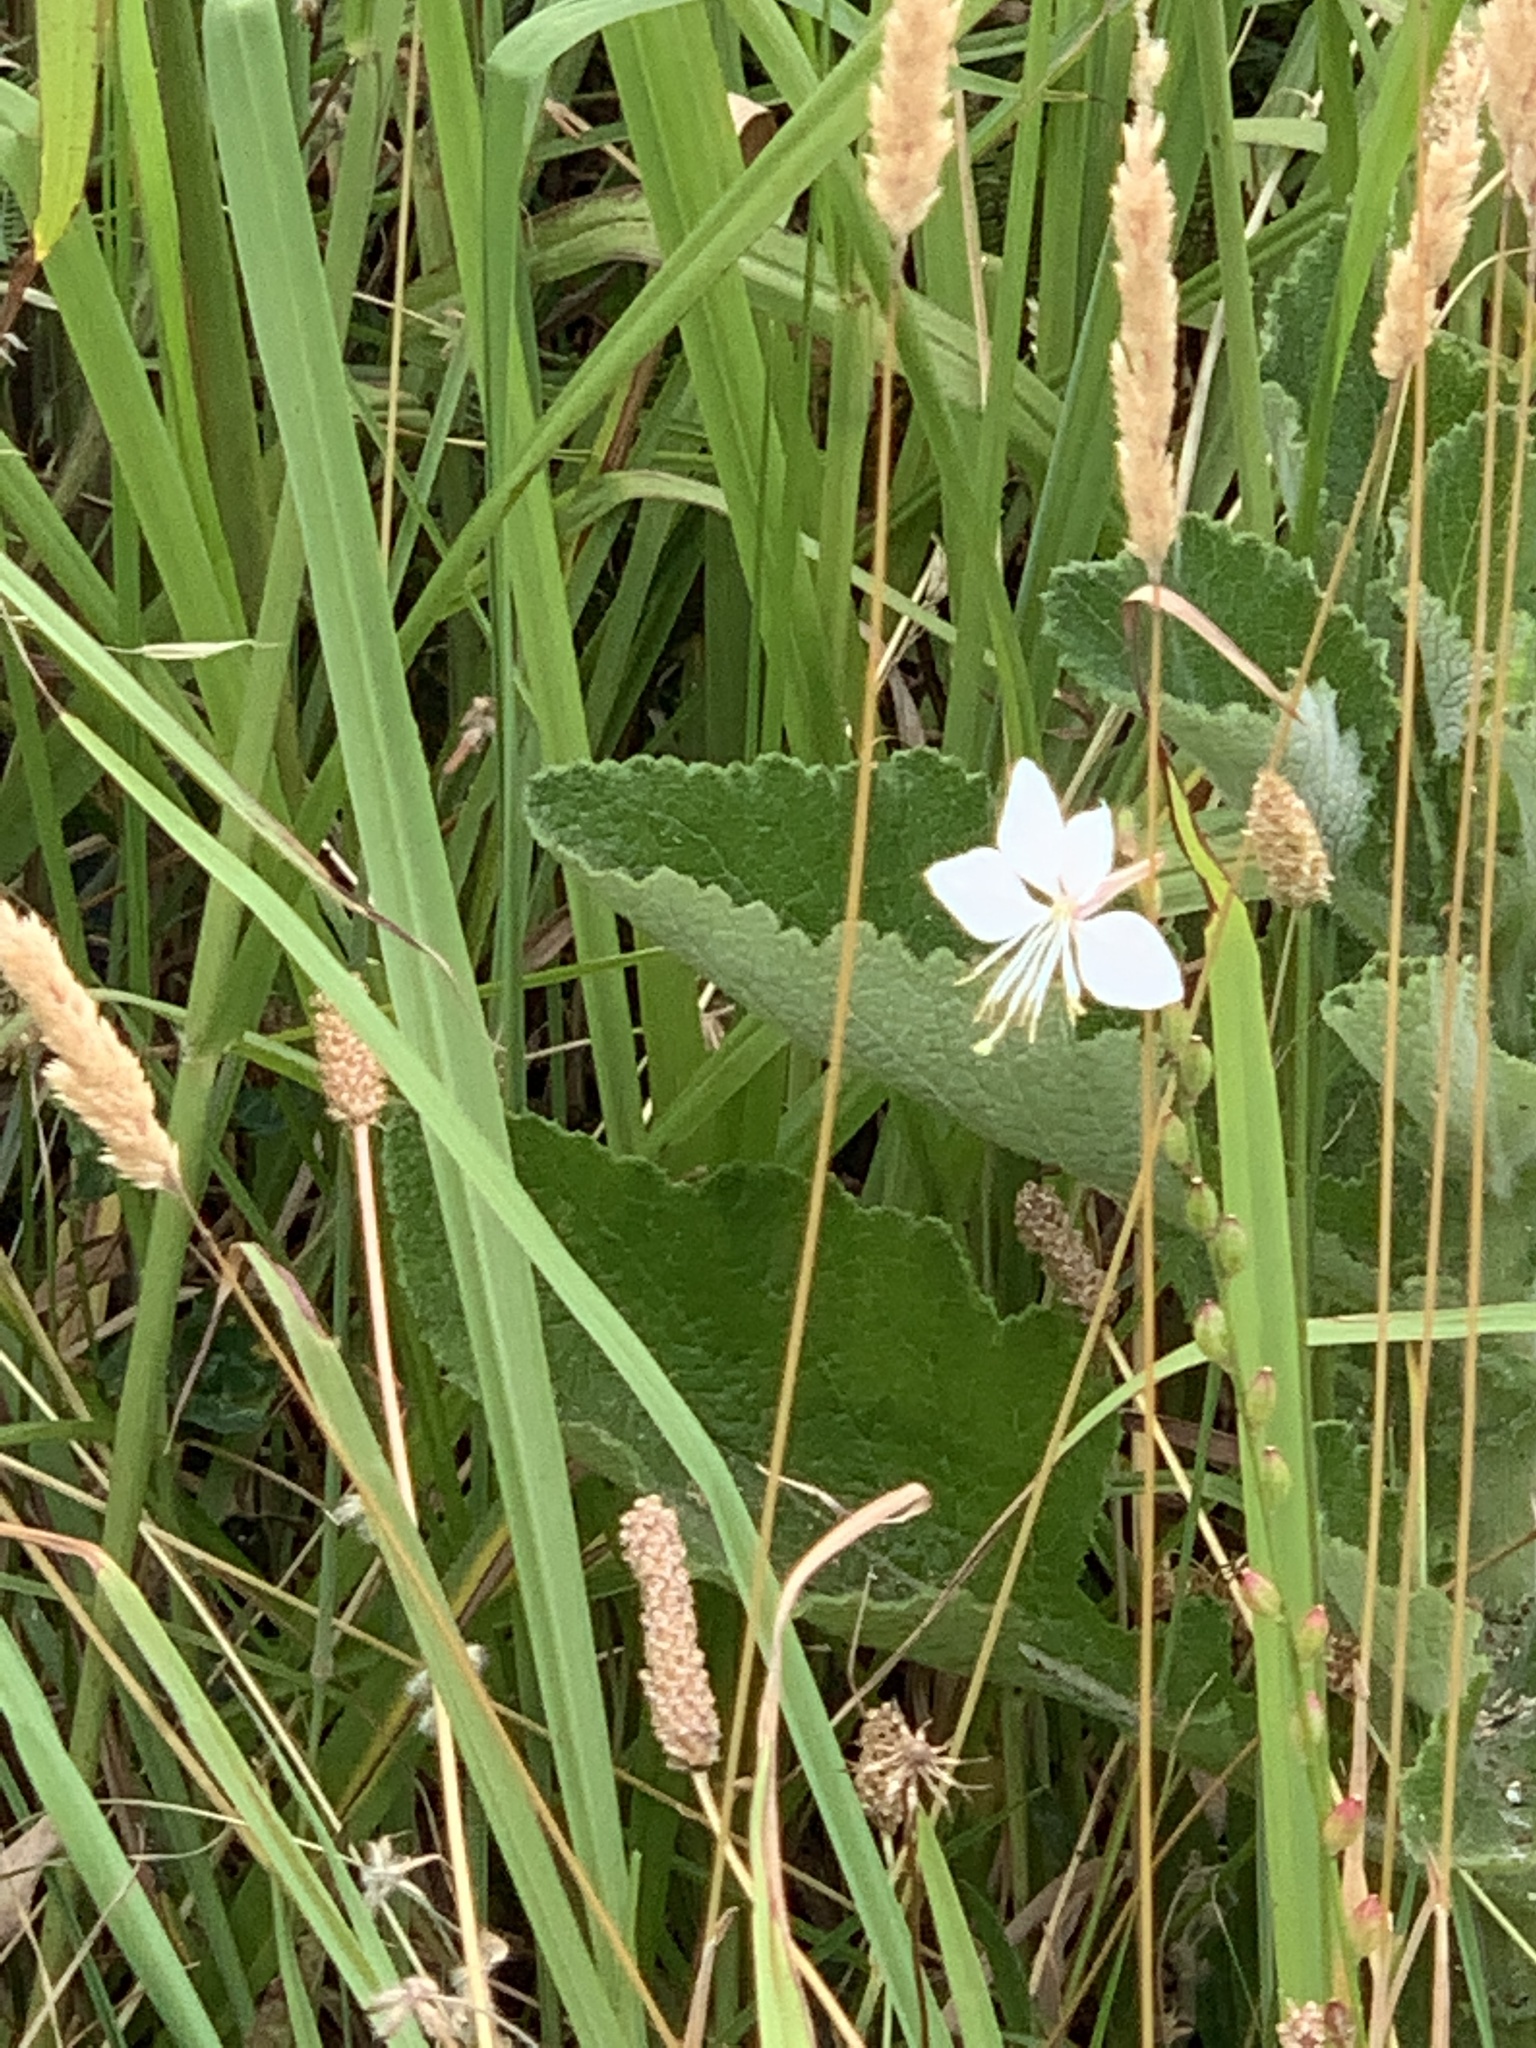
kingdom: Plantae
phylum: Tracheophyta
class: Magnoliopsida
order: Myrtales
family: Onagraceae
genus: Oenothera
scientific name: Oenothera lindheimeri
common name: Lindheimer's beeblossom
